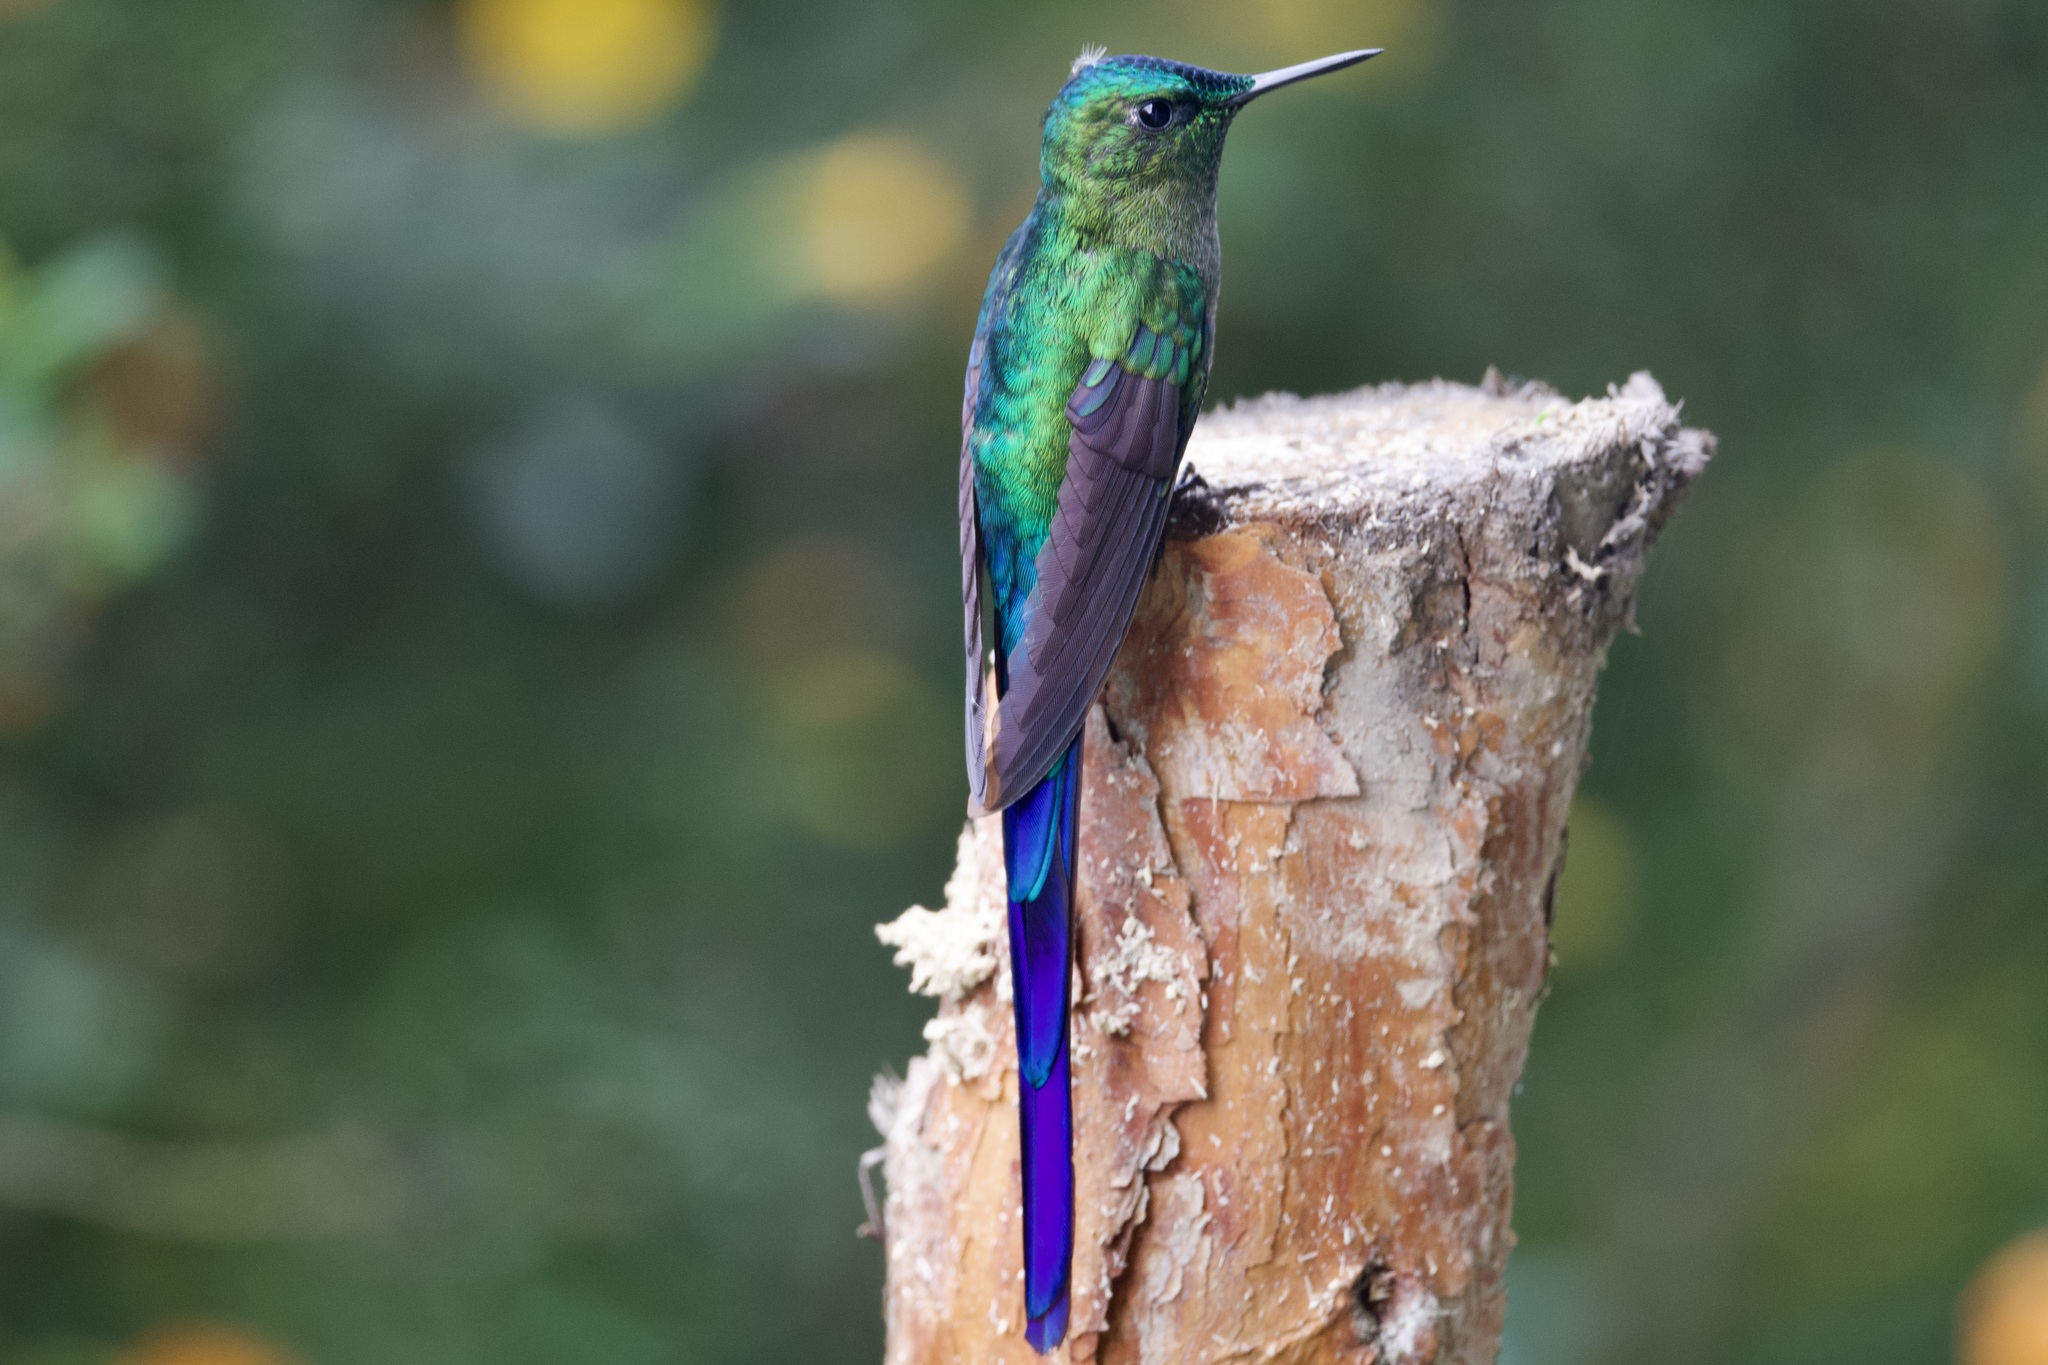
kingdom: Animalia
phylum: Chordata
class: Aves
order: Apodiformes
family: Trochilidae
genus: Aglaiocercus
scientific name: Aglaiocercus kingii
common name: Long-tailed sylph
